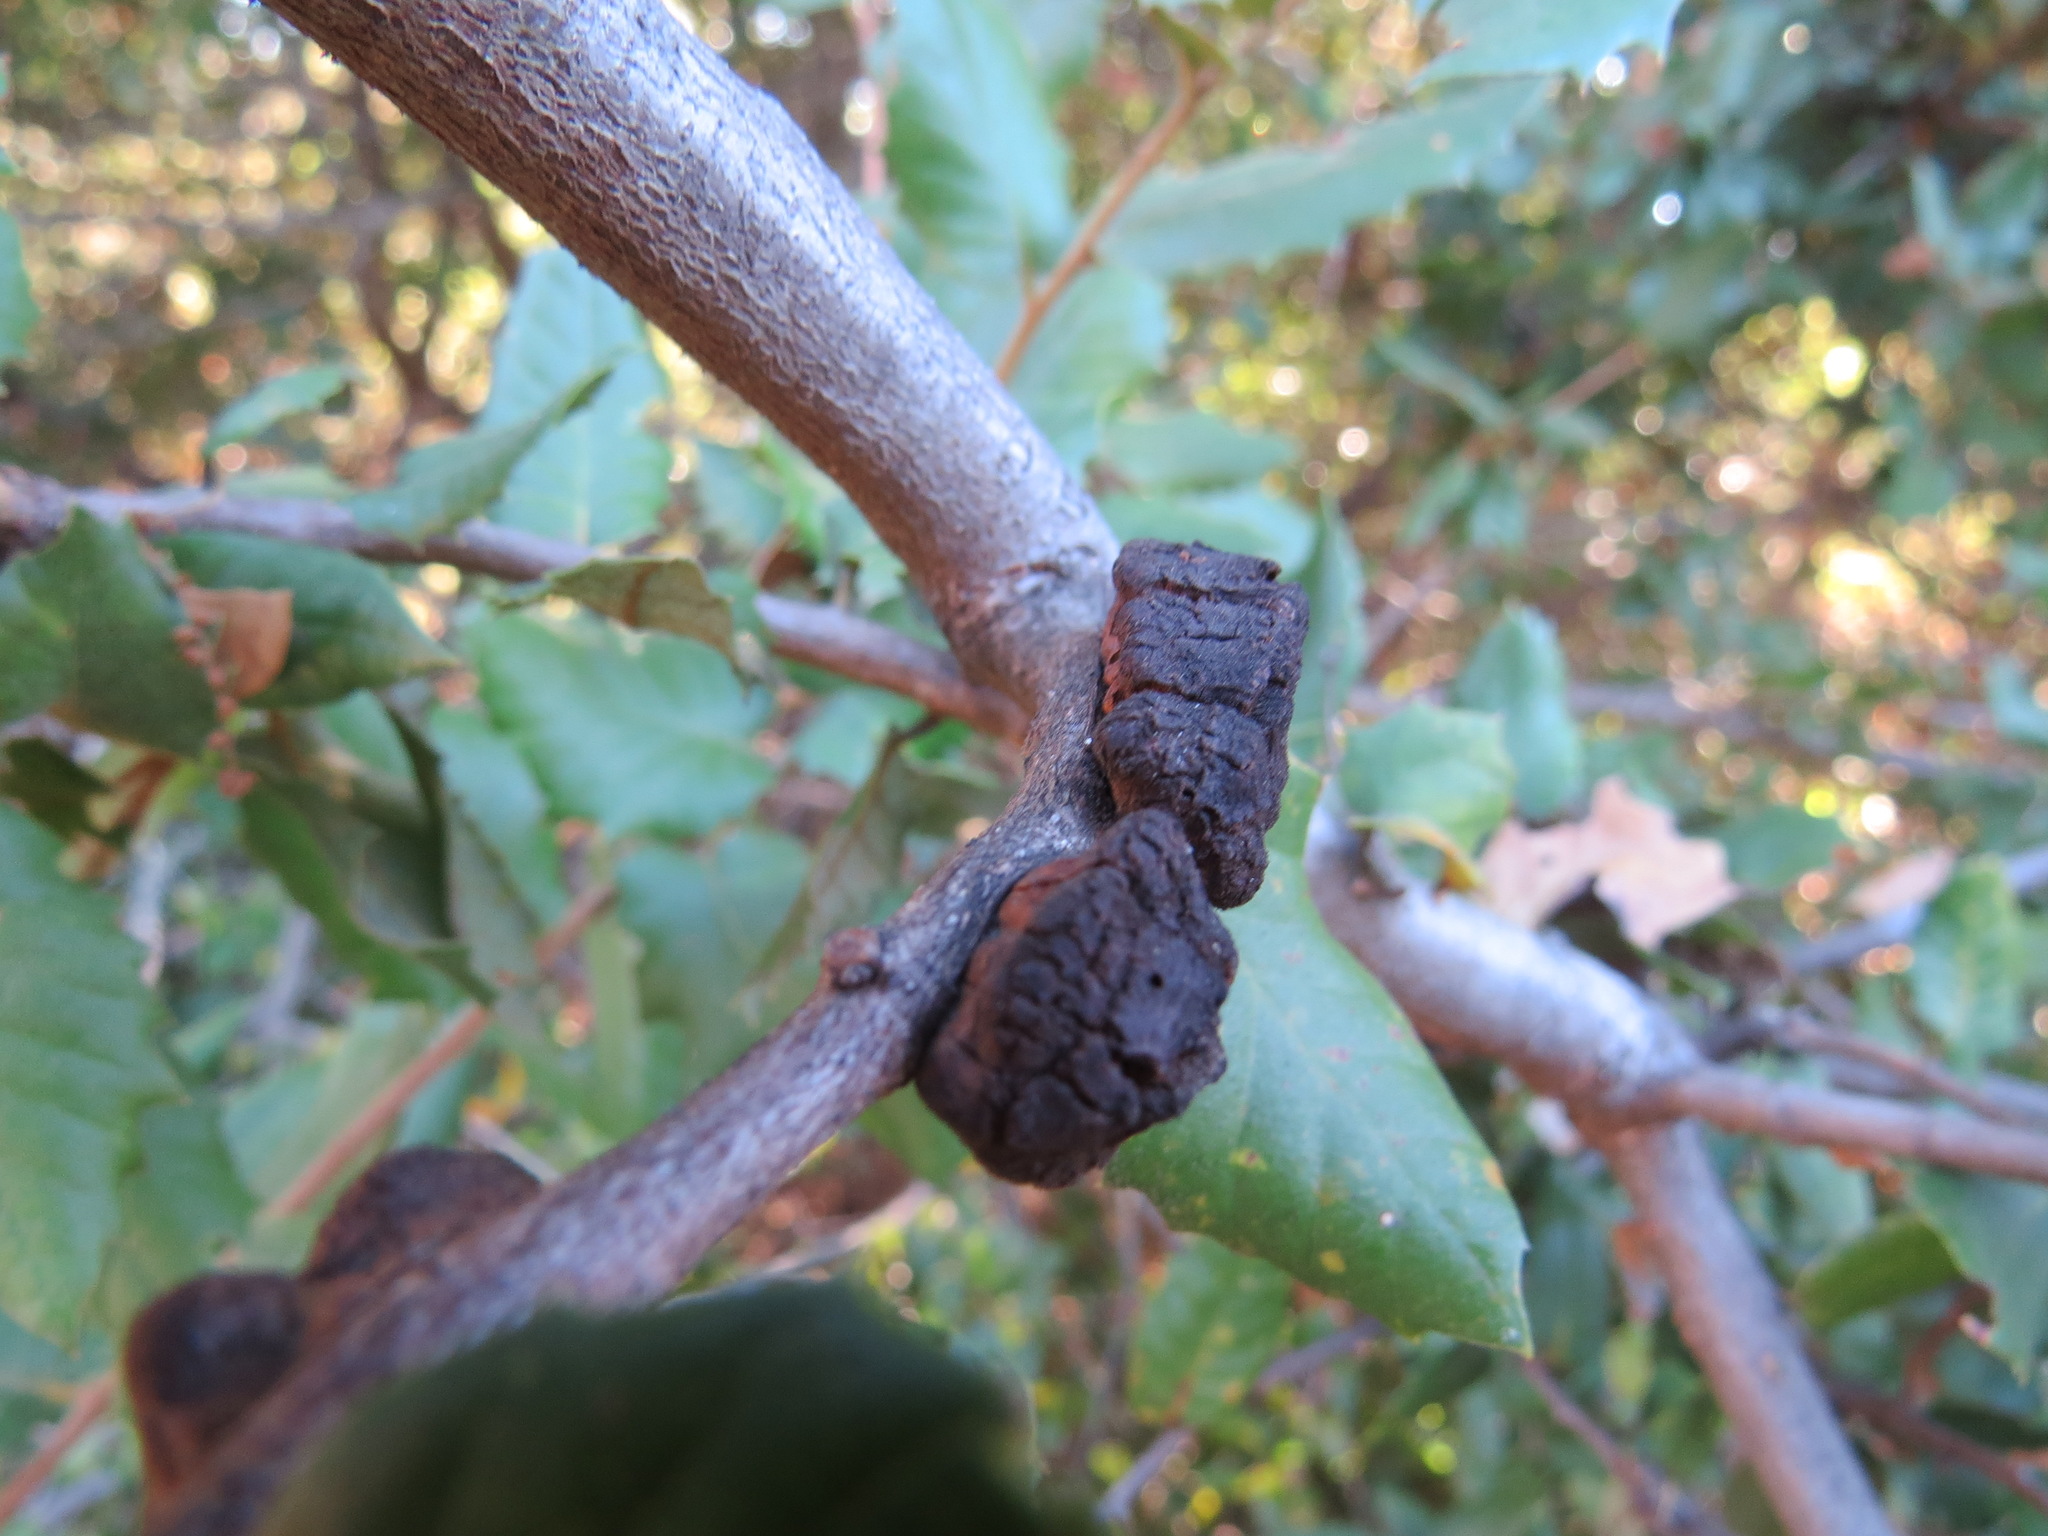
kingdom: Animalia
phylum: Arthropoda
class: Insecta
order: Hymenoptera
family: Cynipidae
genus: Disholandricus
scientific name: Disholandricus
